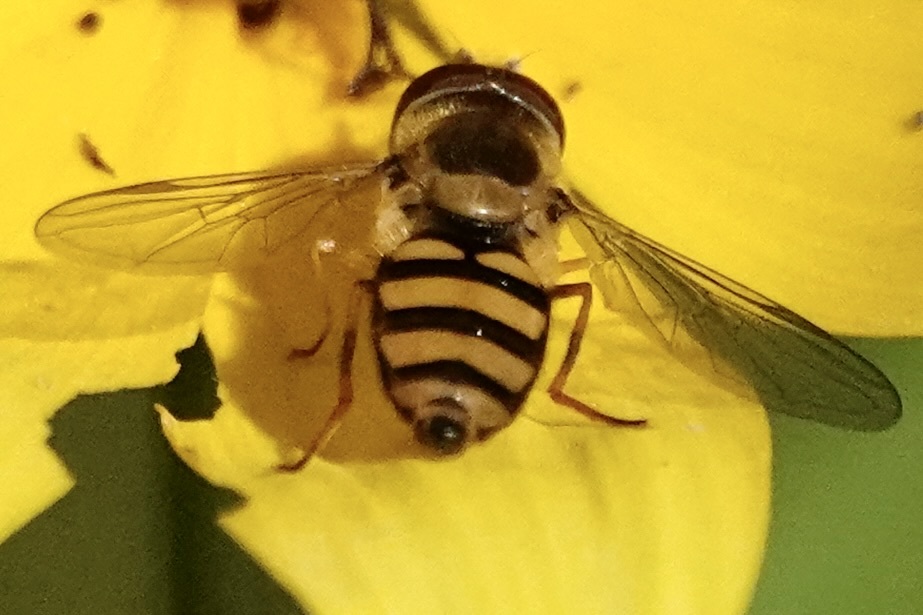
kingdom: Animalia
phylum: Arthropoda
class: Insecta
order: Diptera
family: Syrphidae
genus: Eupeodes
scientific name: Eupeodes
